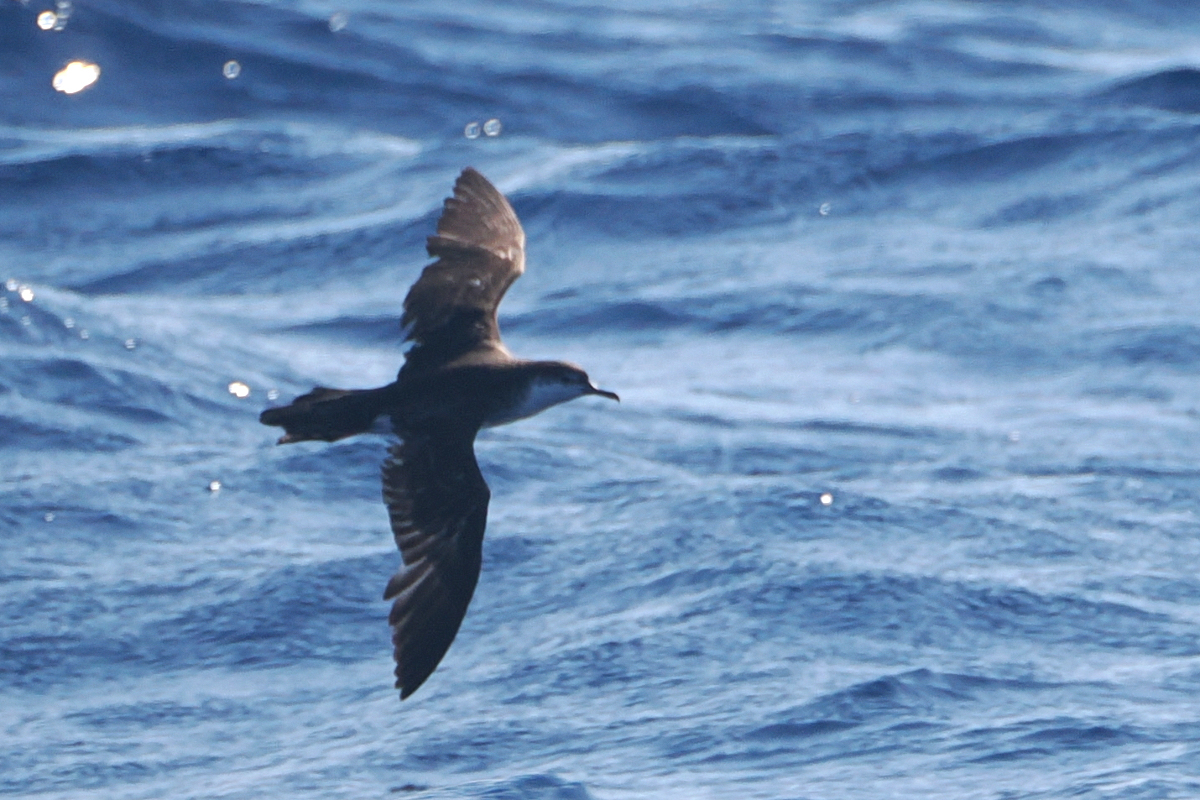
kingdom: Animalia
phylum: Chordata
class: Aves
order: Procellariiformes
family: Procellariidae
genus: Puffinus
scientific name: Puffinus lherminieri
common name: Audubon's shearwater
